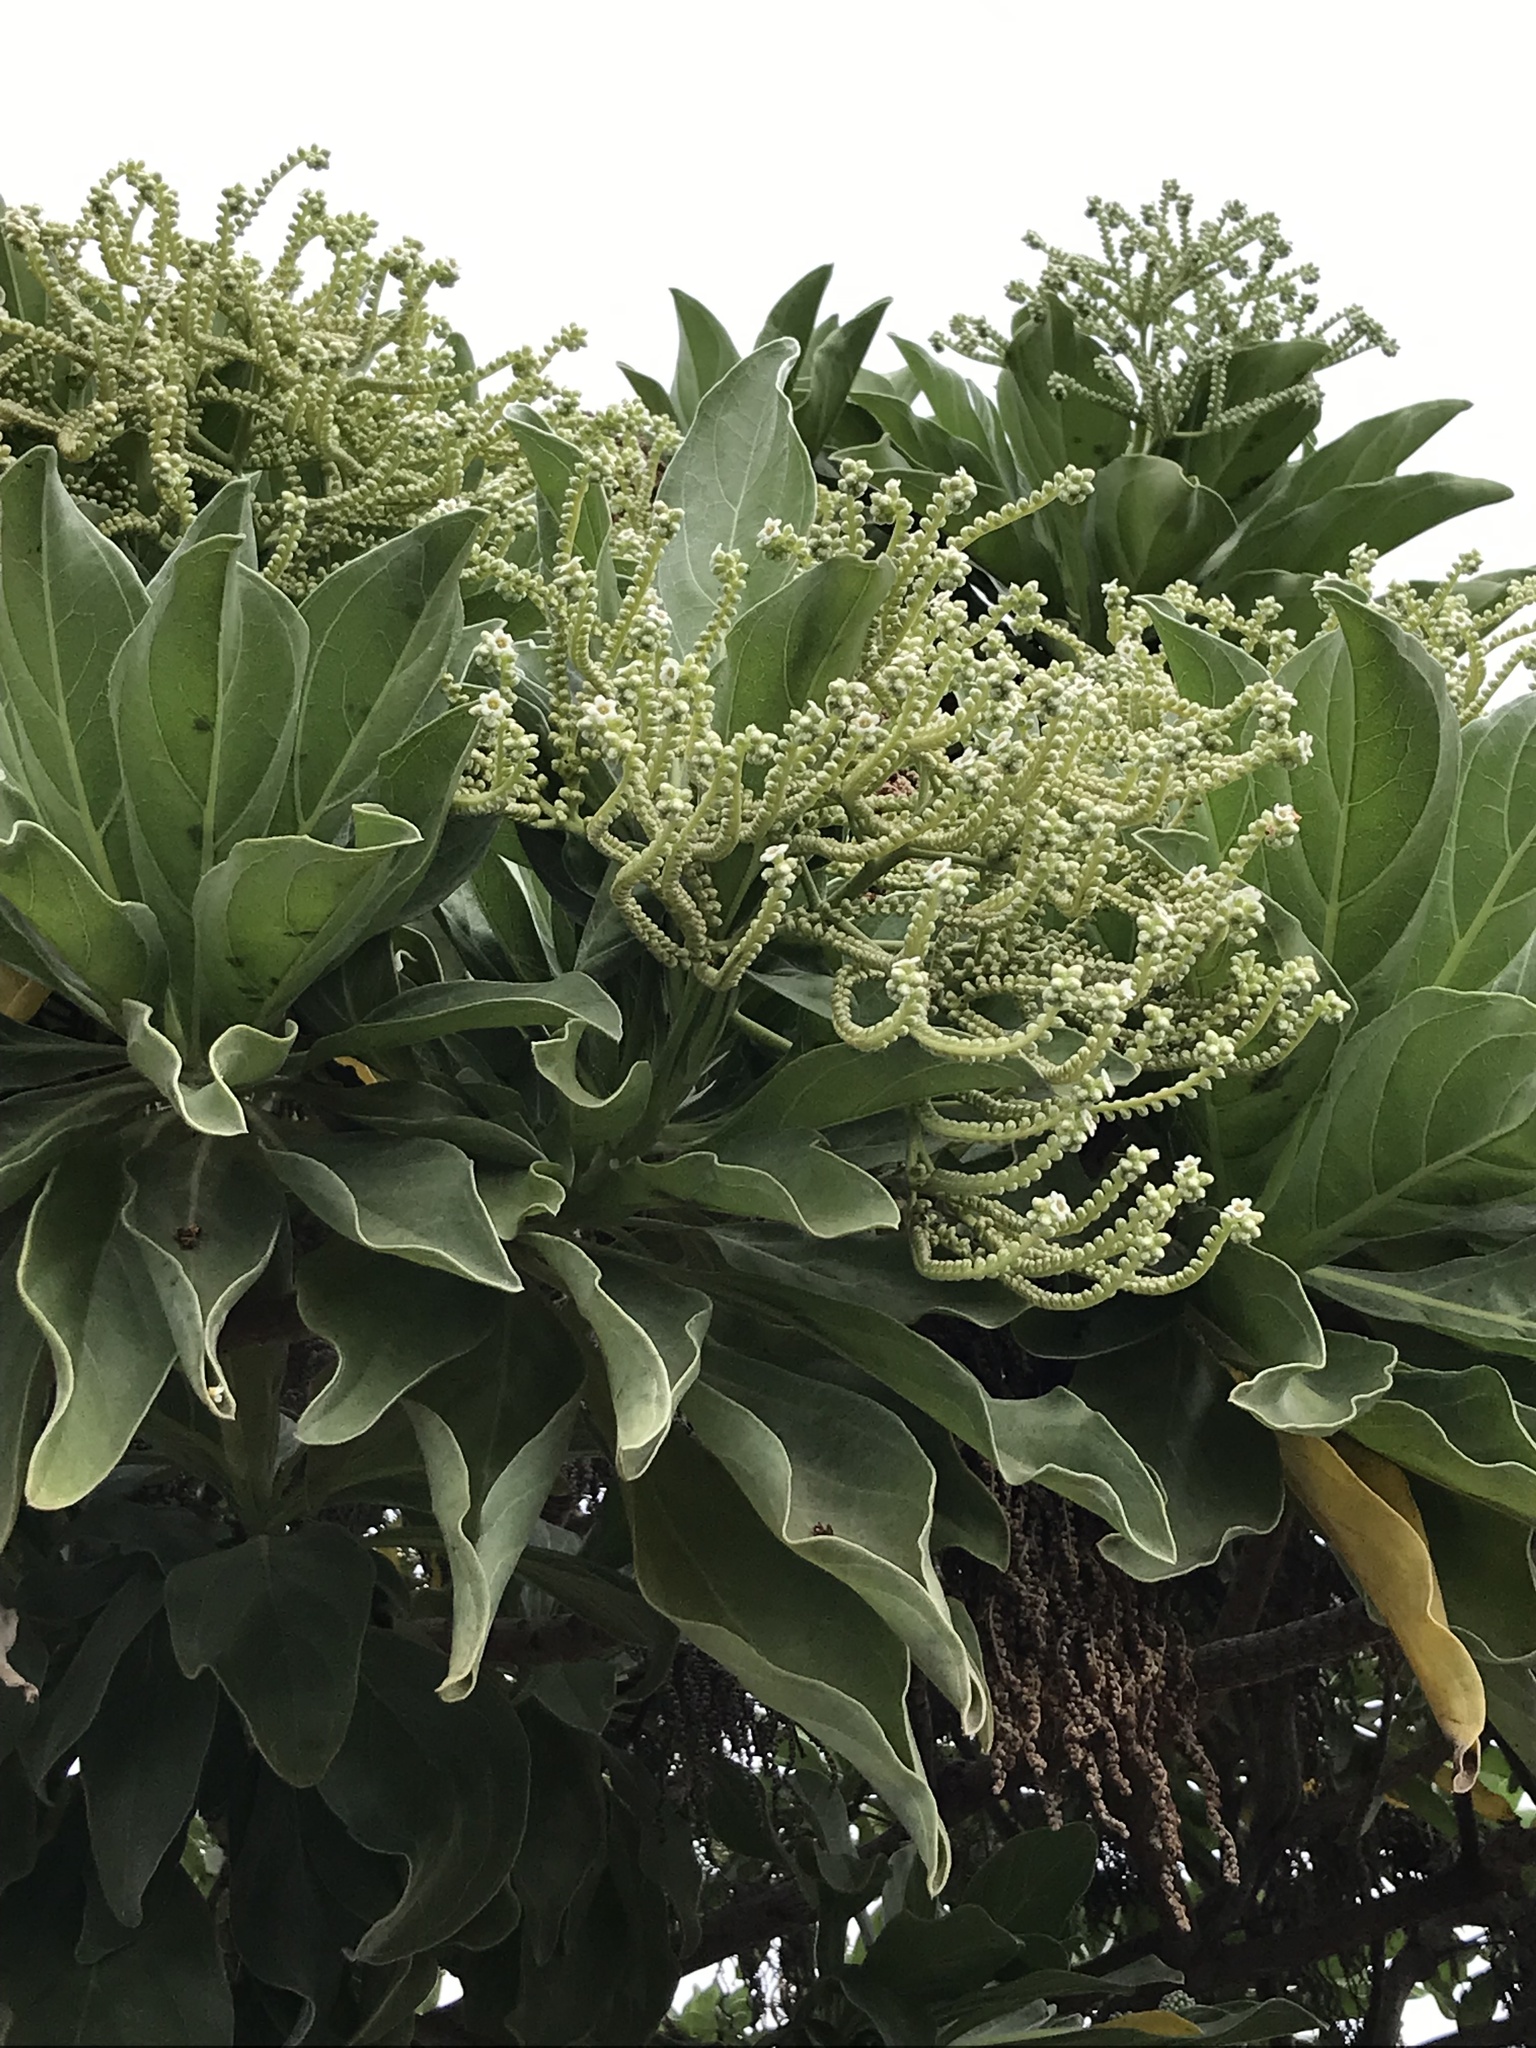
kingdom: Plantae
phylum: Tracheophyta
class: Magnoliopsida
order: Boraginales
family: Heliotropiaceae
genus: Heliotropium
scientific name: Heliotropium velutinum
